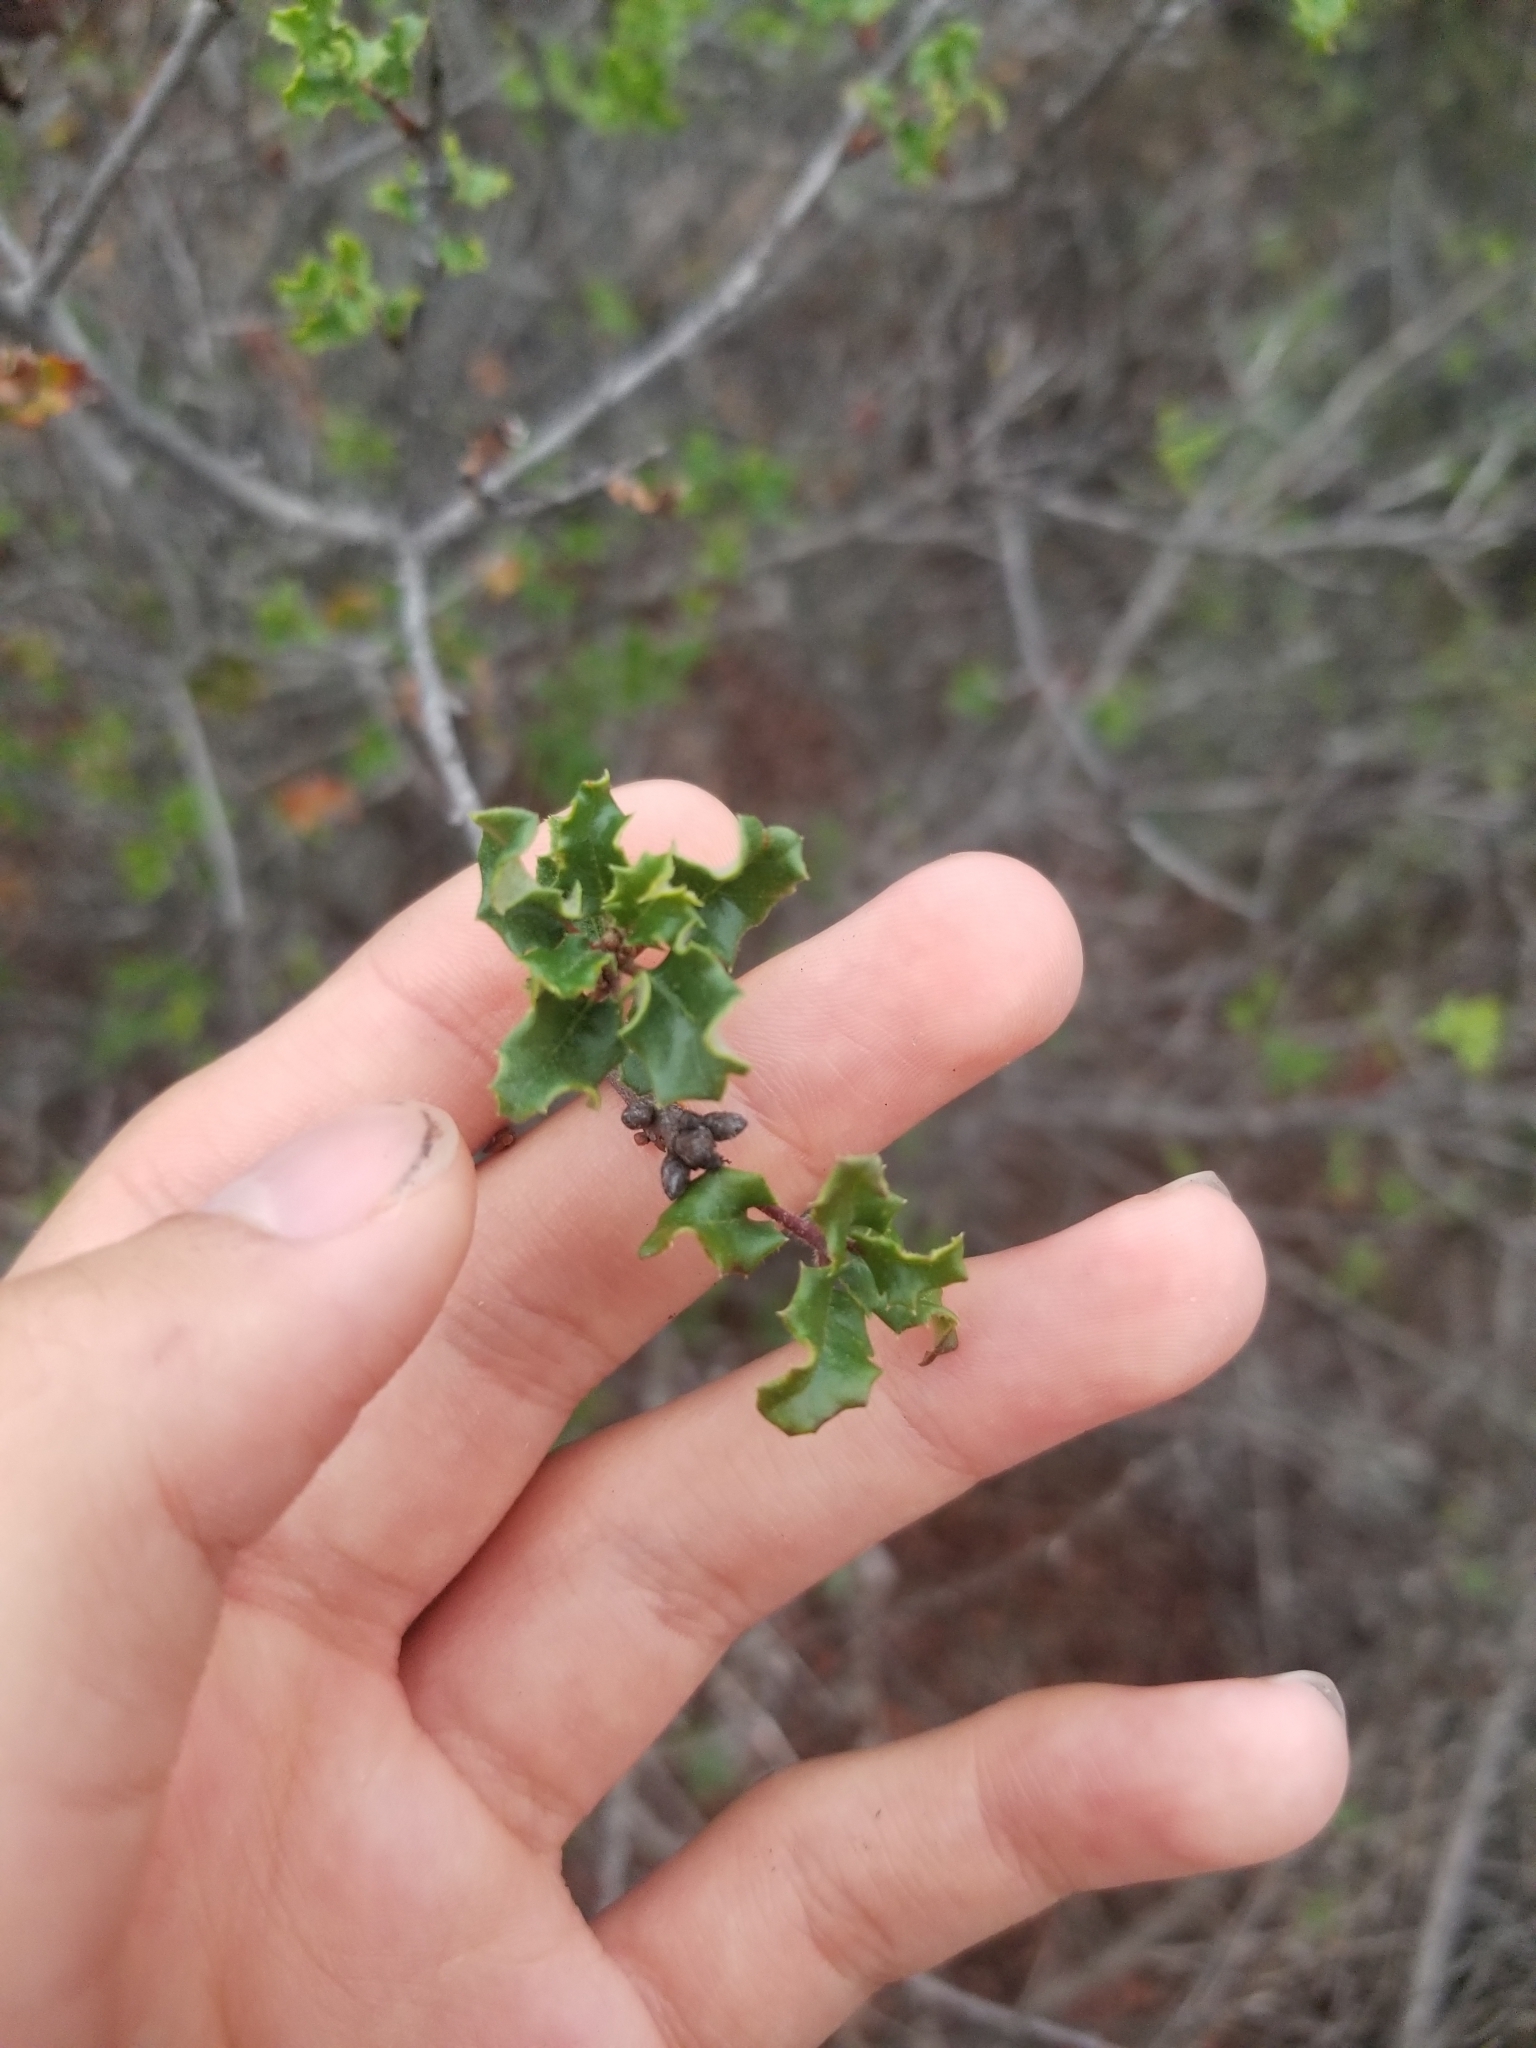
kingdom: Plantae
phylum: Tracheophyta
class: Magnoliopsida
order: Fagales
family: Fagaceae
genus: Quercus
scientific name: Quercus dumosa
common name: Coastal sage scrub oak
